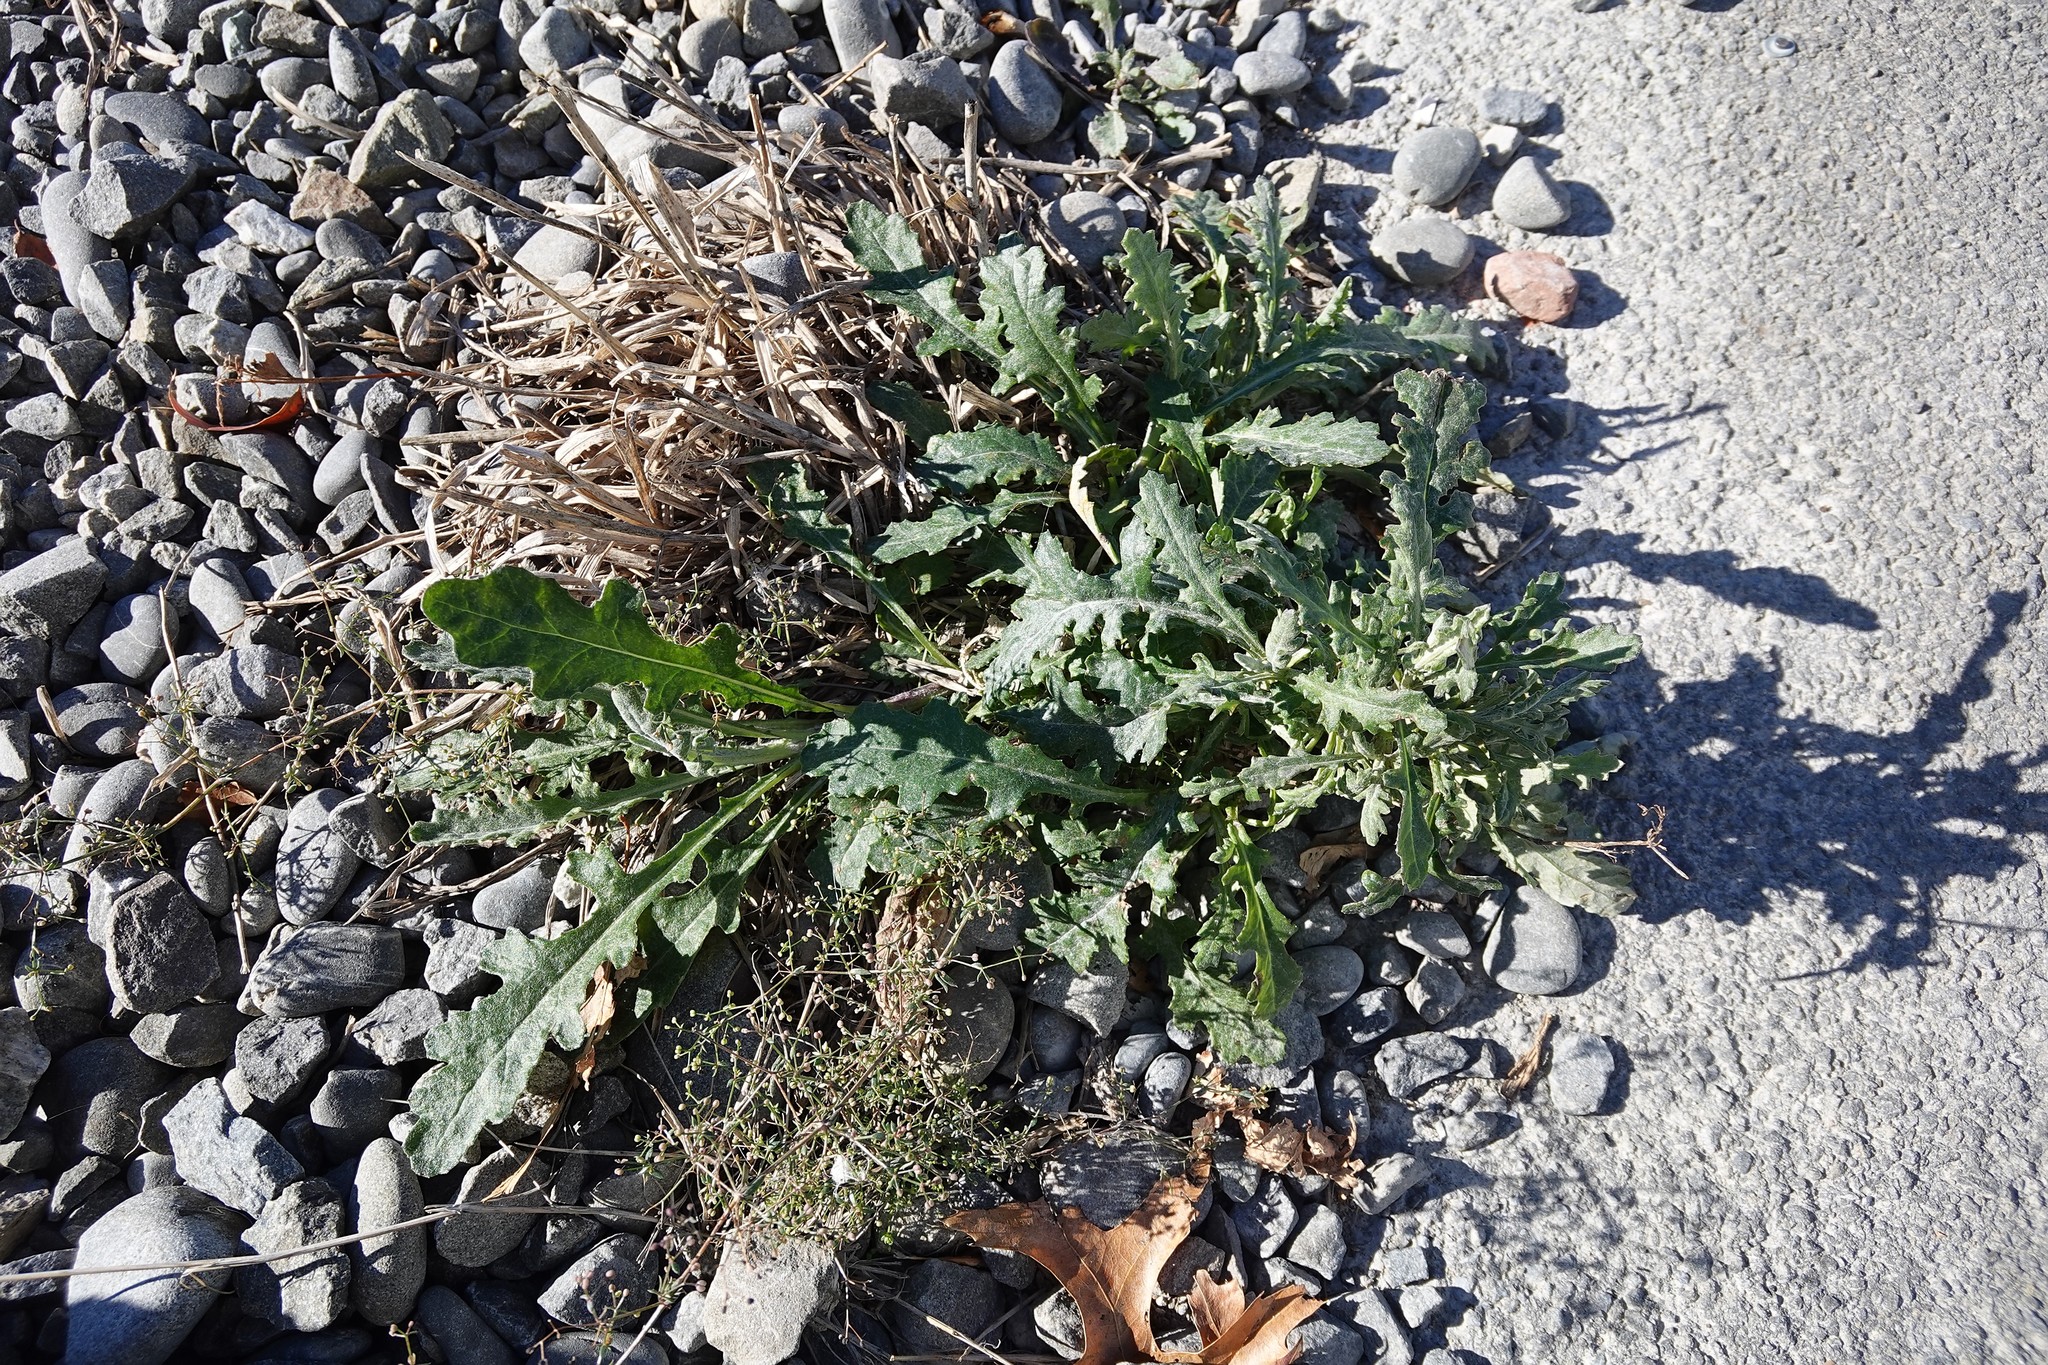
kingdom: Plantae
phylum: Tracheophyta
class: Magnoliopsida
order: Asterales
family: Asteraceae
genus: Senecio
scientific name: Senecio glomeratus
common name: Cutleaf burnweed
